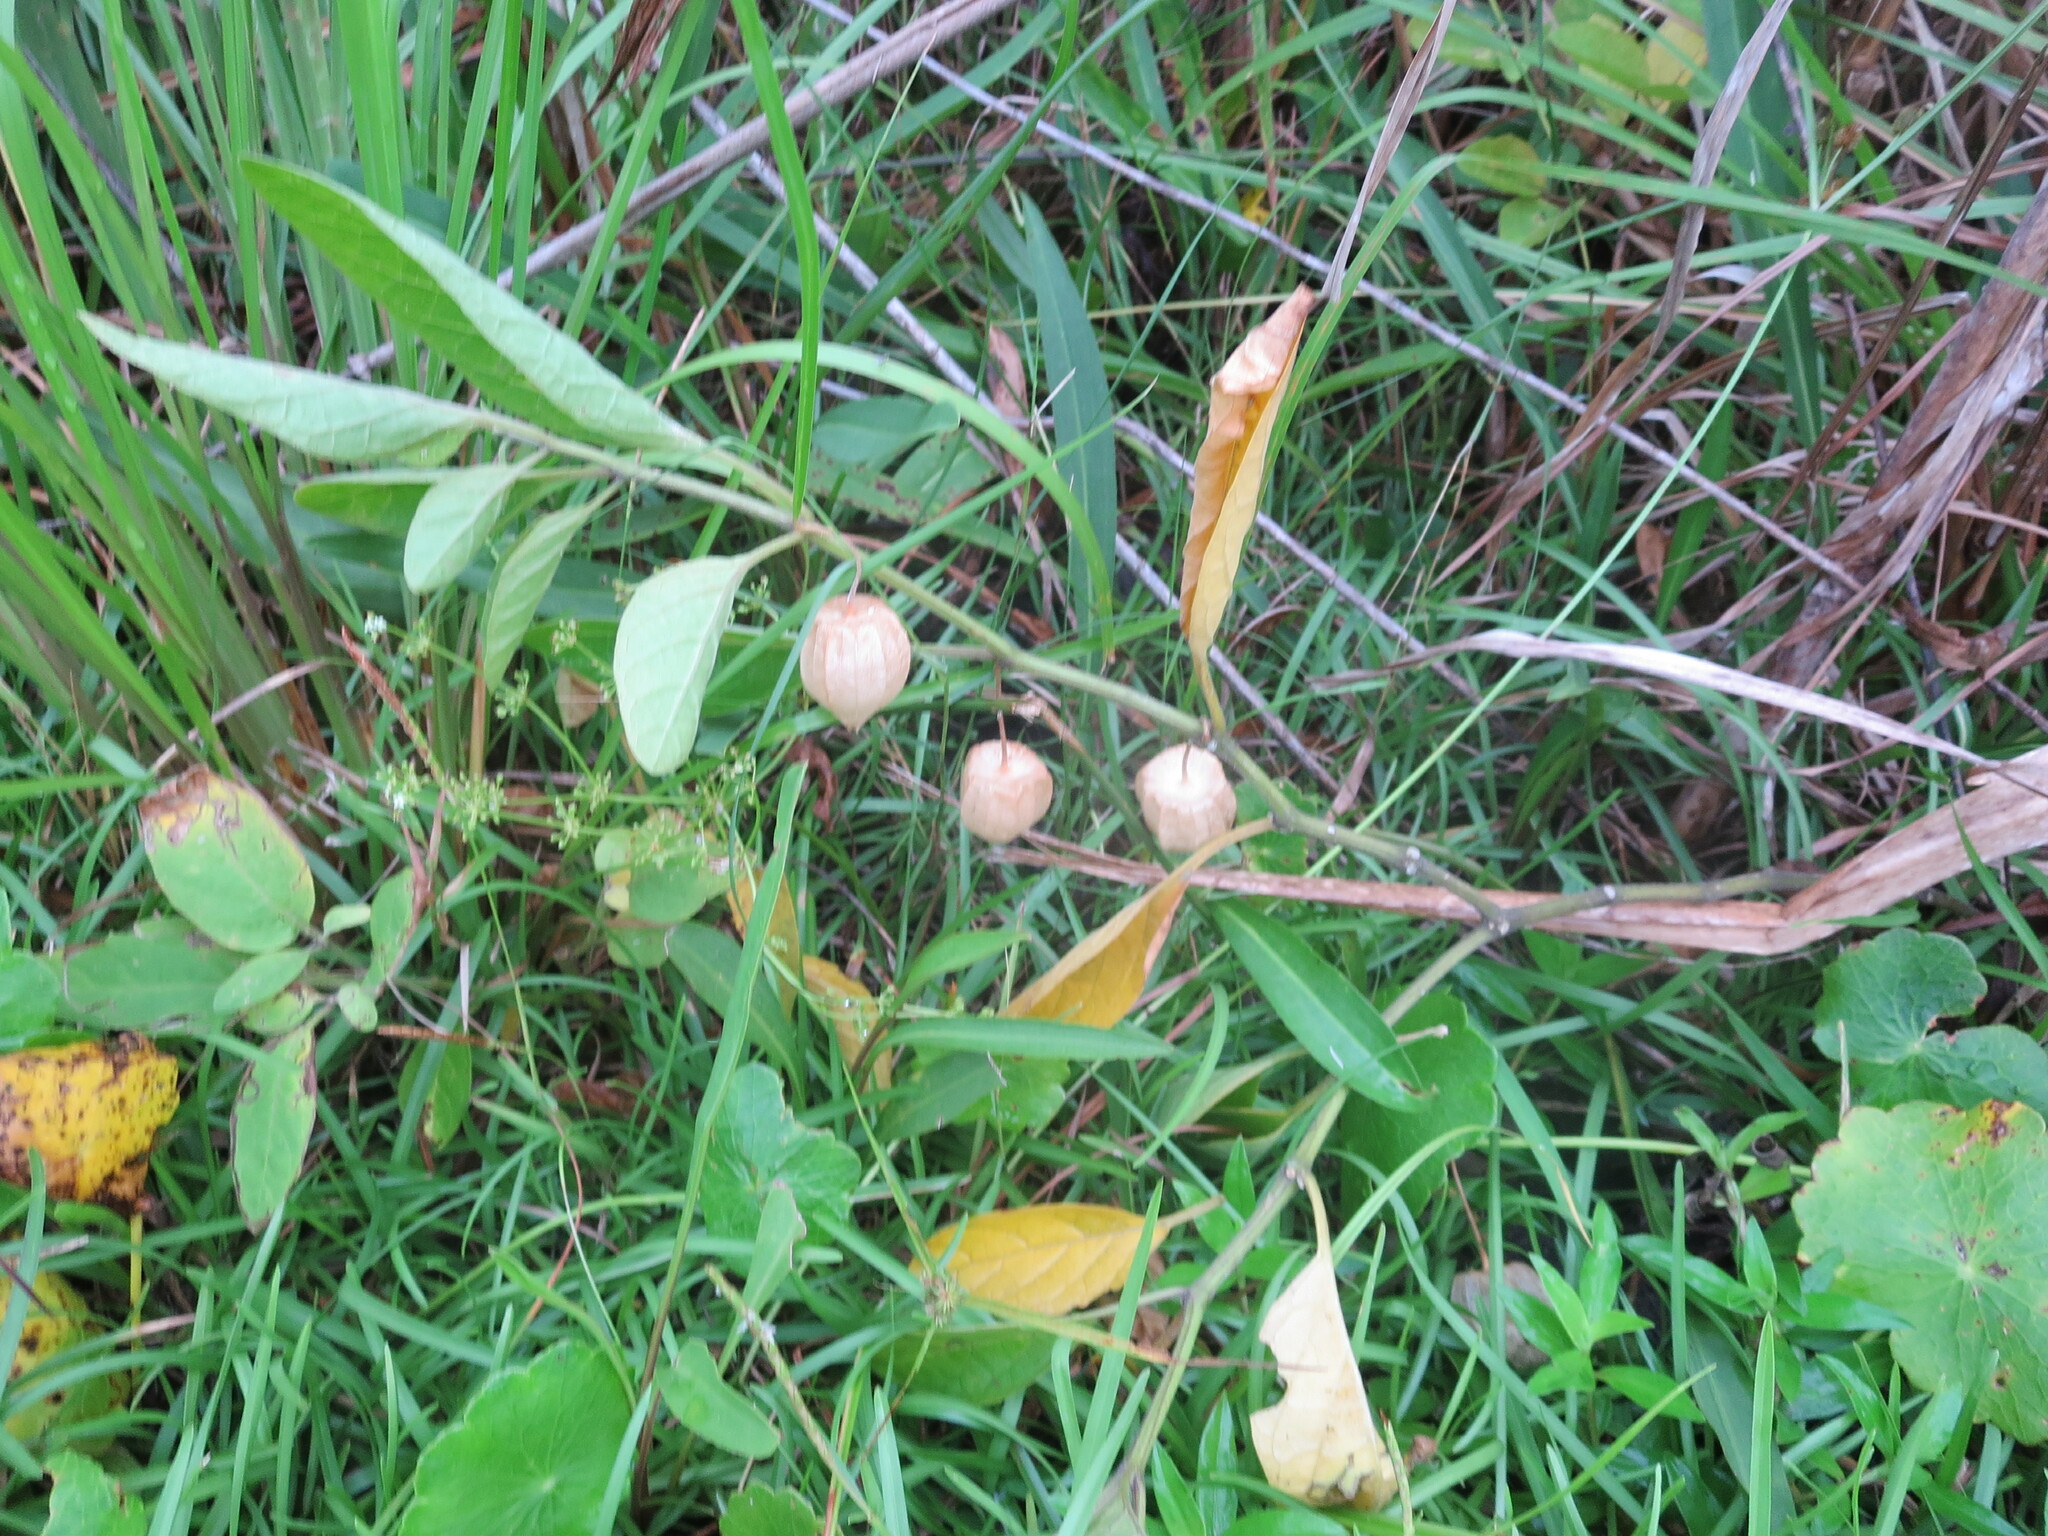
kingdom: Plantae
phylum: Tracheophyta
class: Magnoliopsida
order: Solanales
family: Solanaceae
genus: Physalis
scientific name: Physalis walteri
